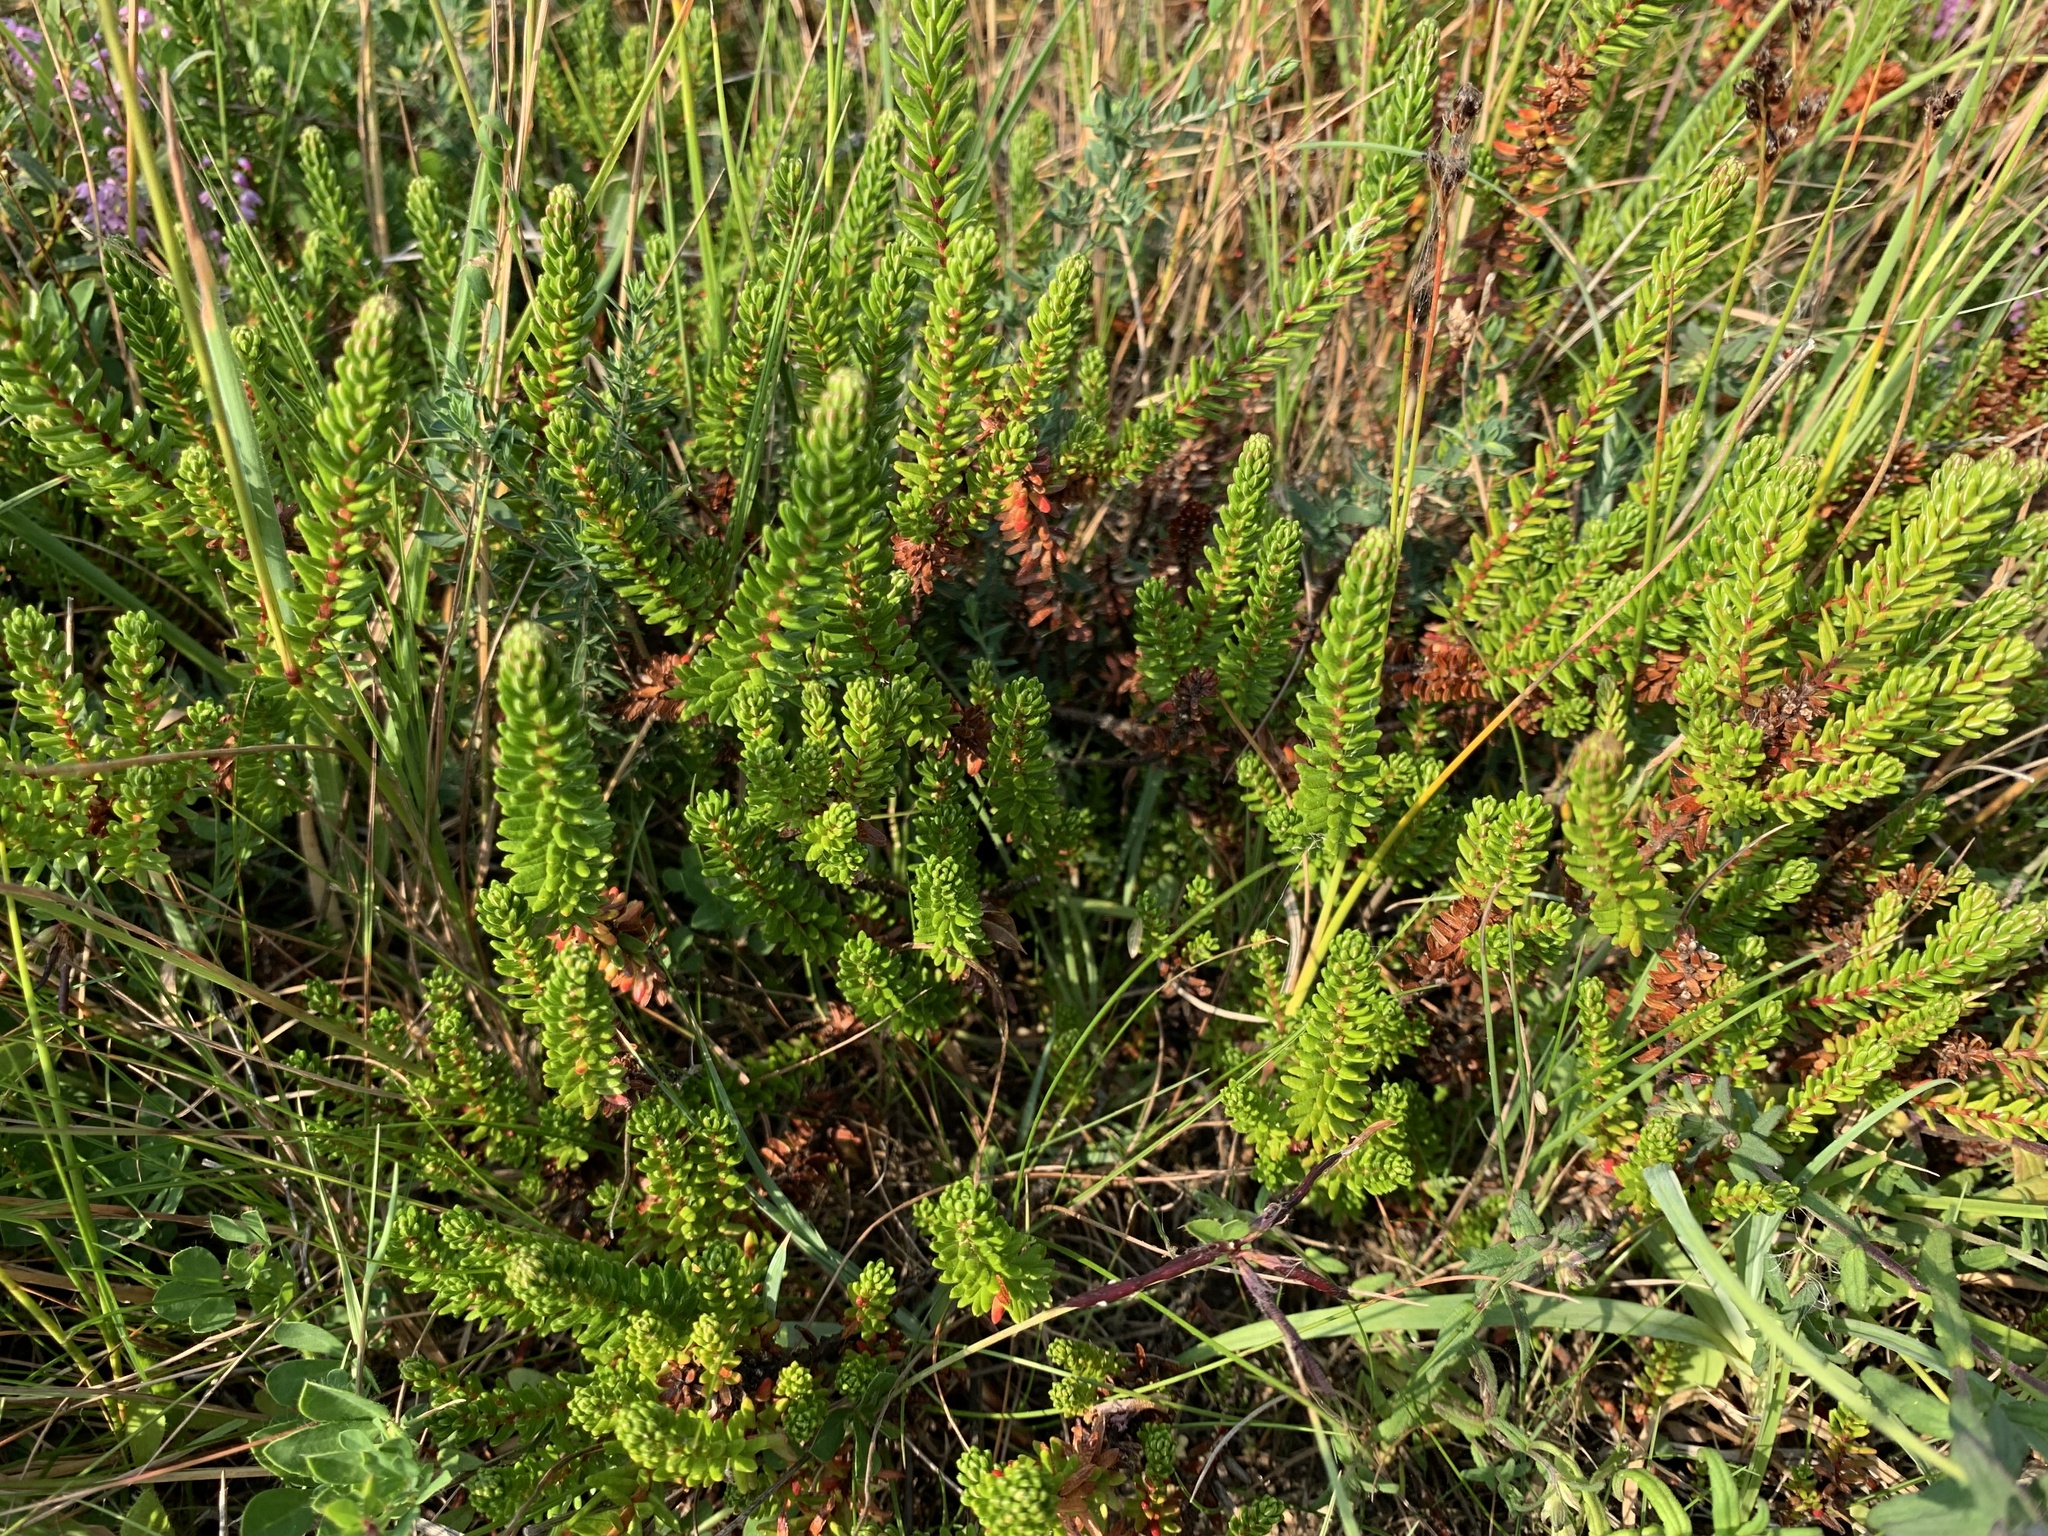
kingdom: Plantae
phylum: Tracheophyta
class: Magnoliopsida
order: Ericales
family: Ericaceae
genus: Empetrum
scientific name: Empetrum nigrum
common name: Black crowberry
